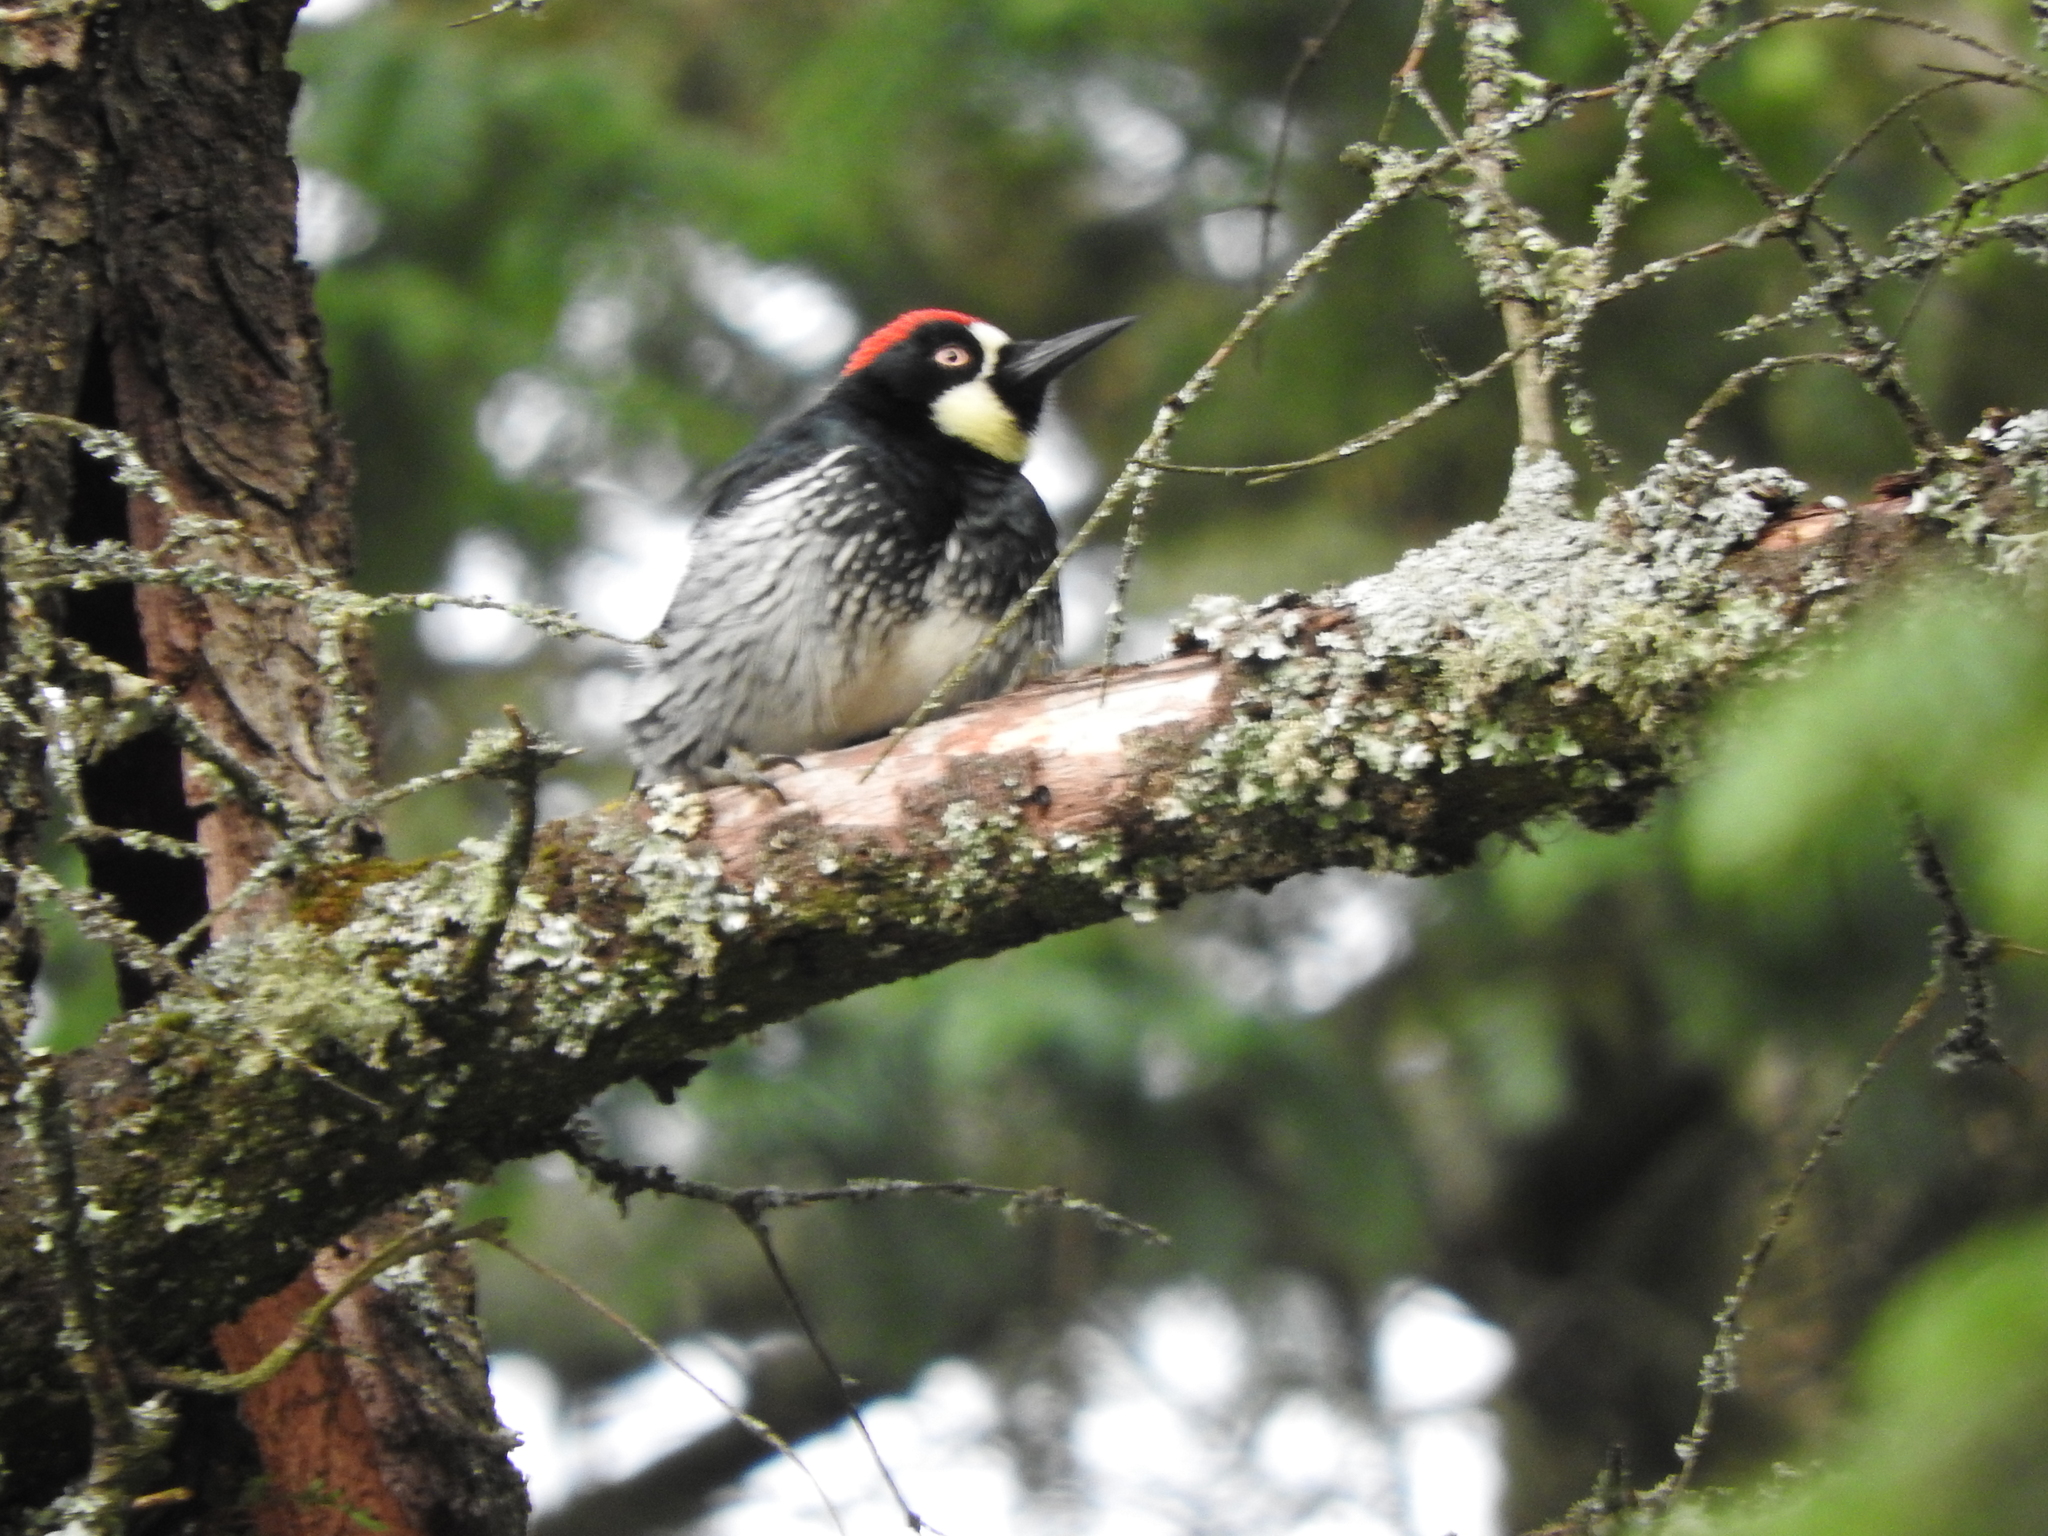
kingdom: Animalia
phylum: Chordata
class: Aves
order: Piciformes
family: Picidae
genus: Melanerpes
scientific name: Melanerpes formicivorus
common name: Acorn woodpecker
